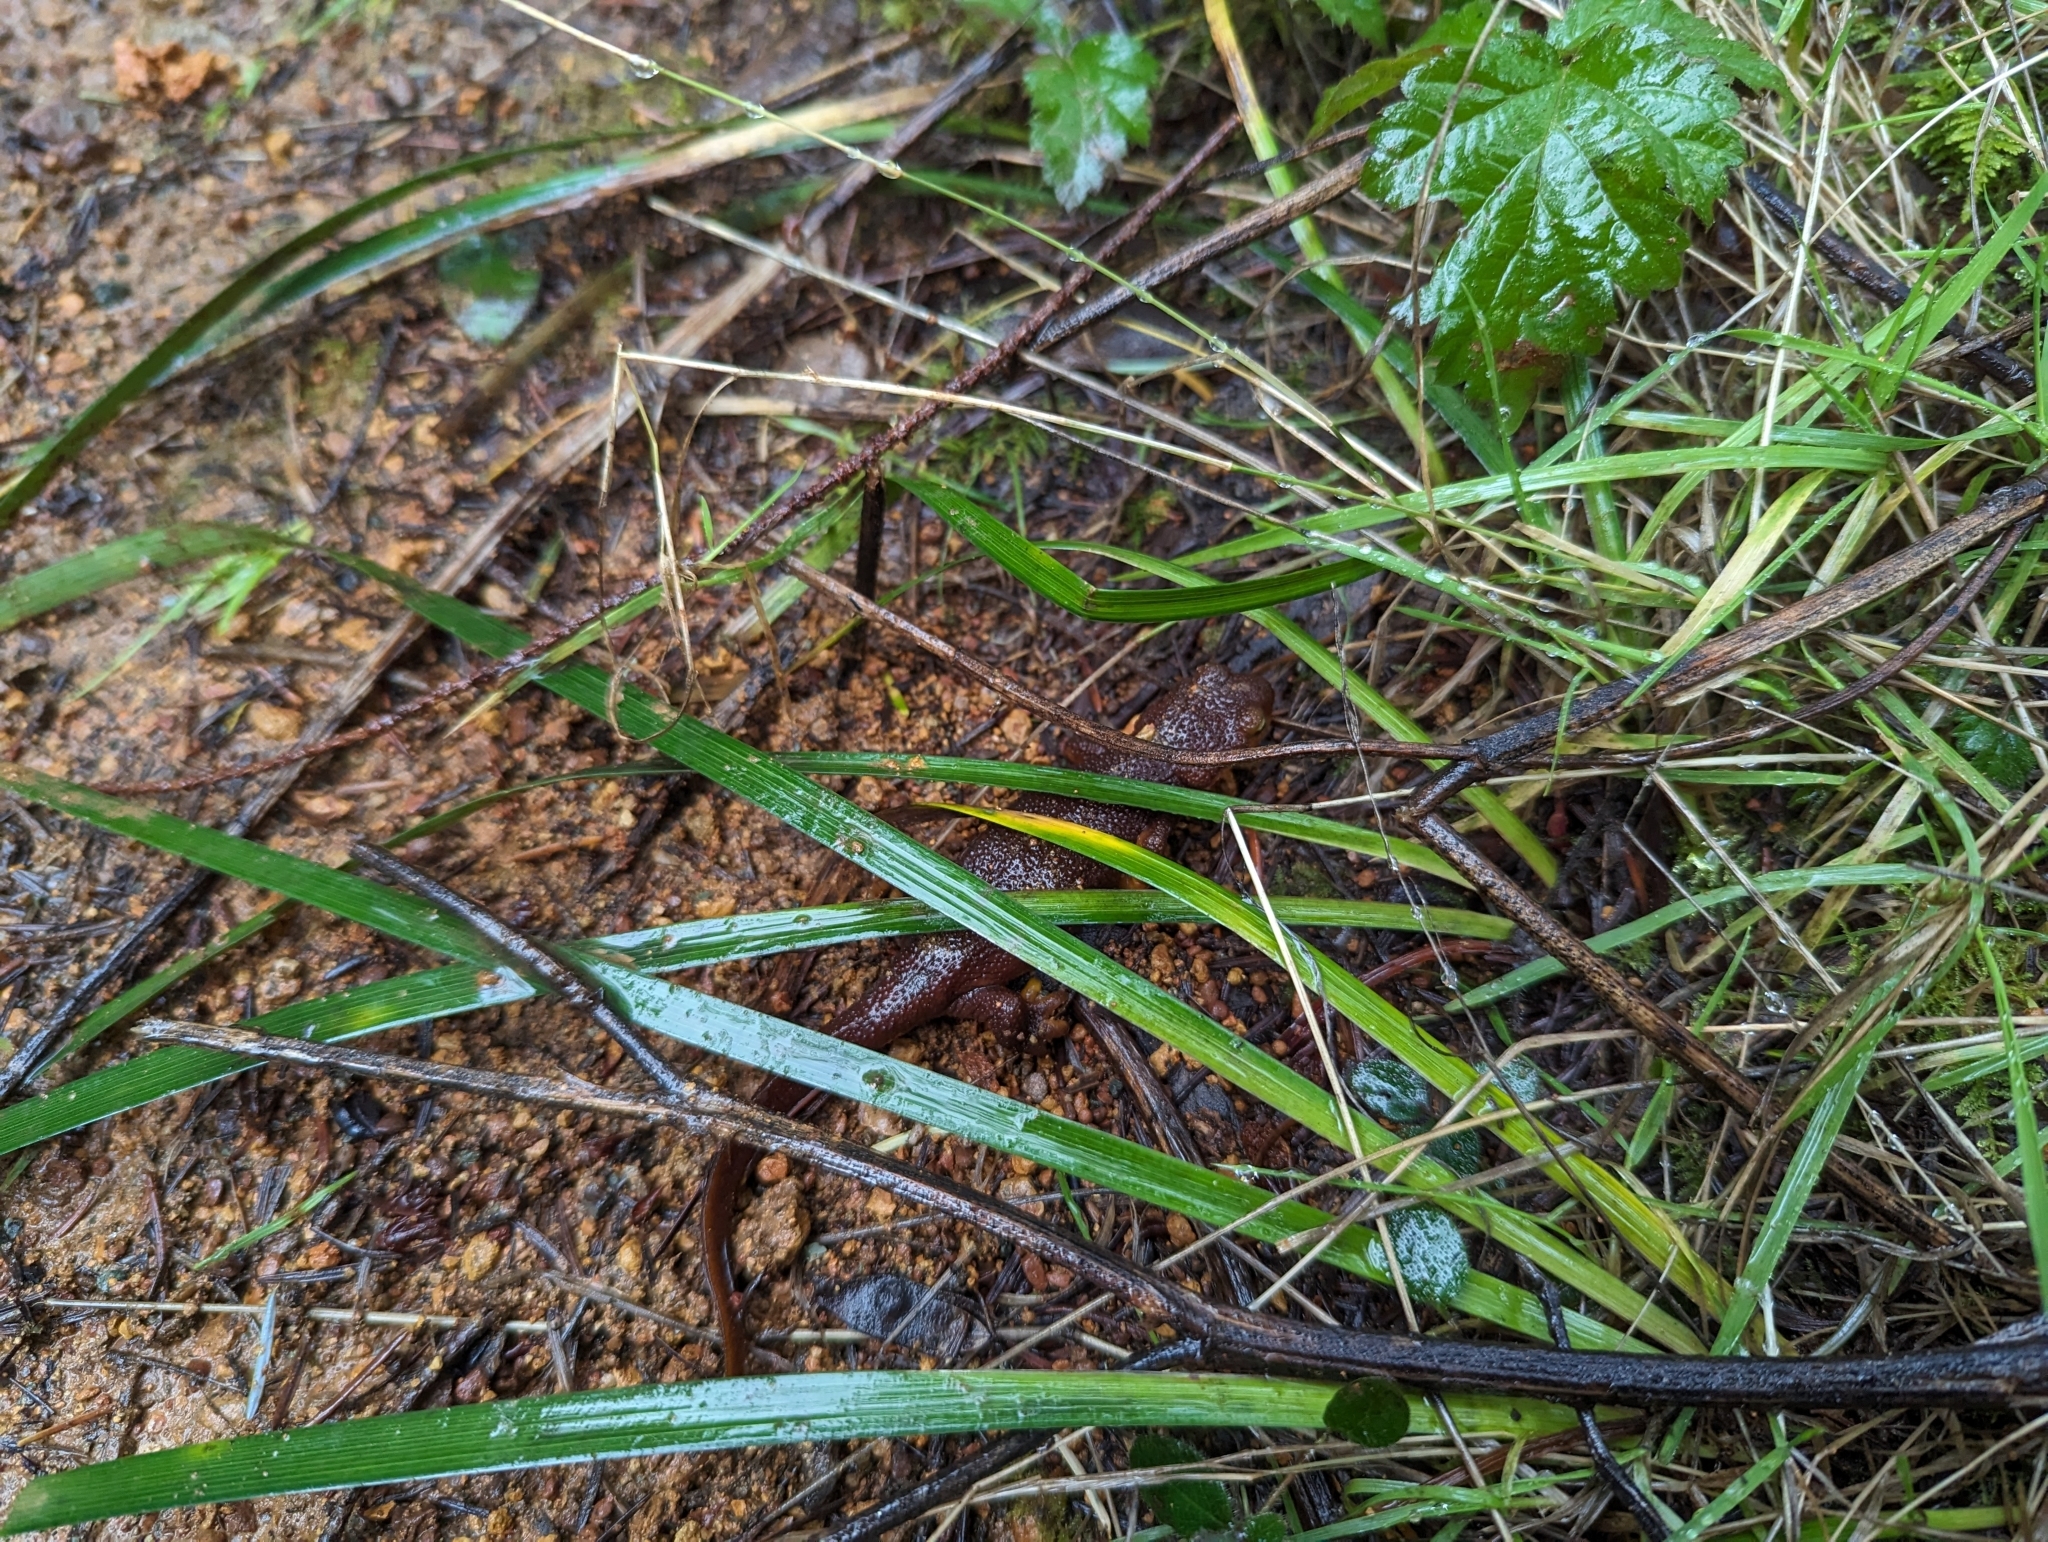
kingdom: Animalia
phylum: Chordata
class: Amphibia
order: Caudata
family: Salamandridae
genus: Taricha
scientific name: Taricha torosa
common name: California newt
